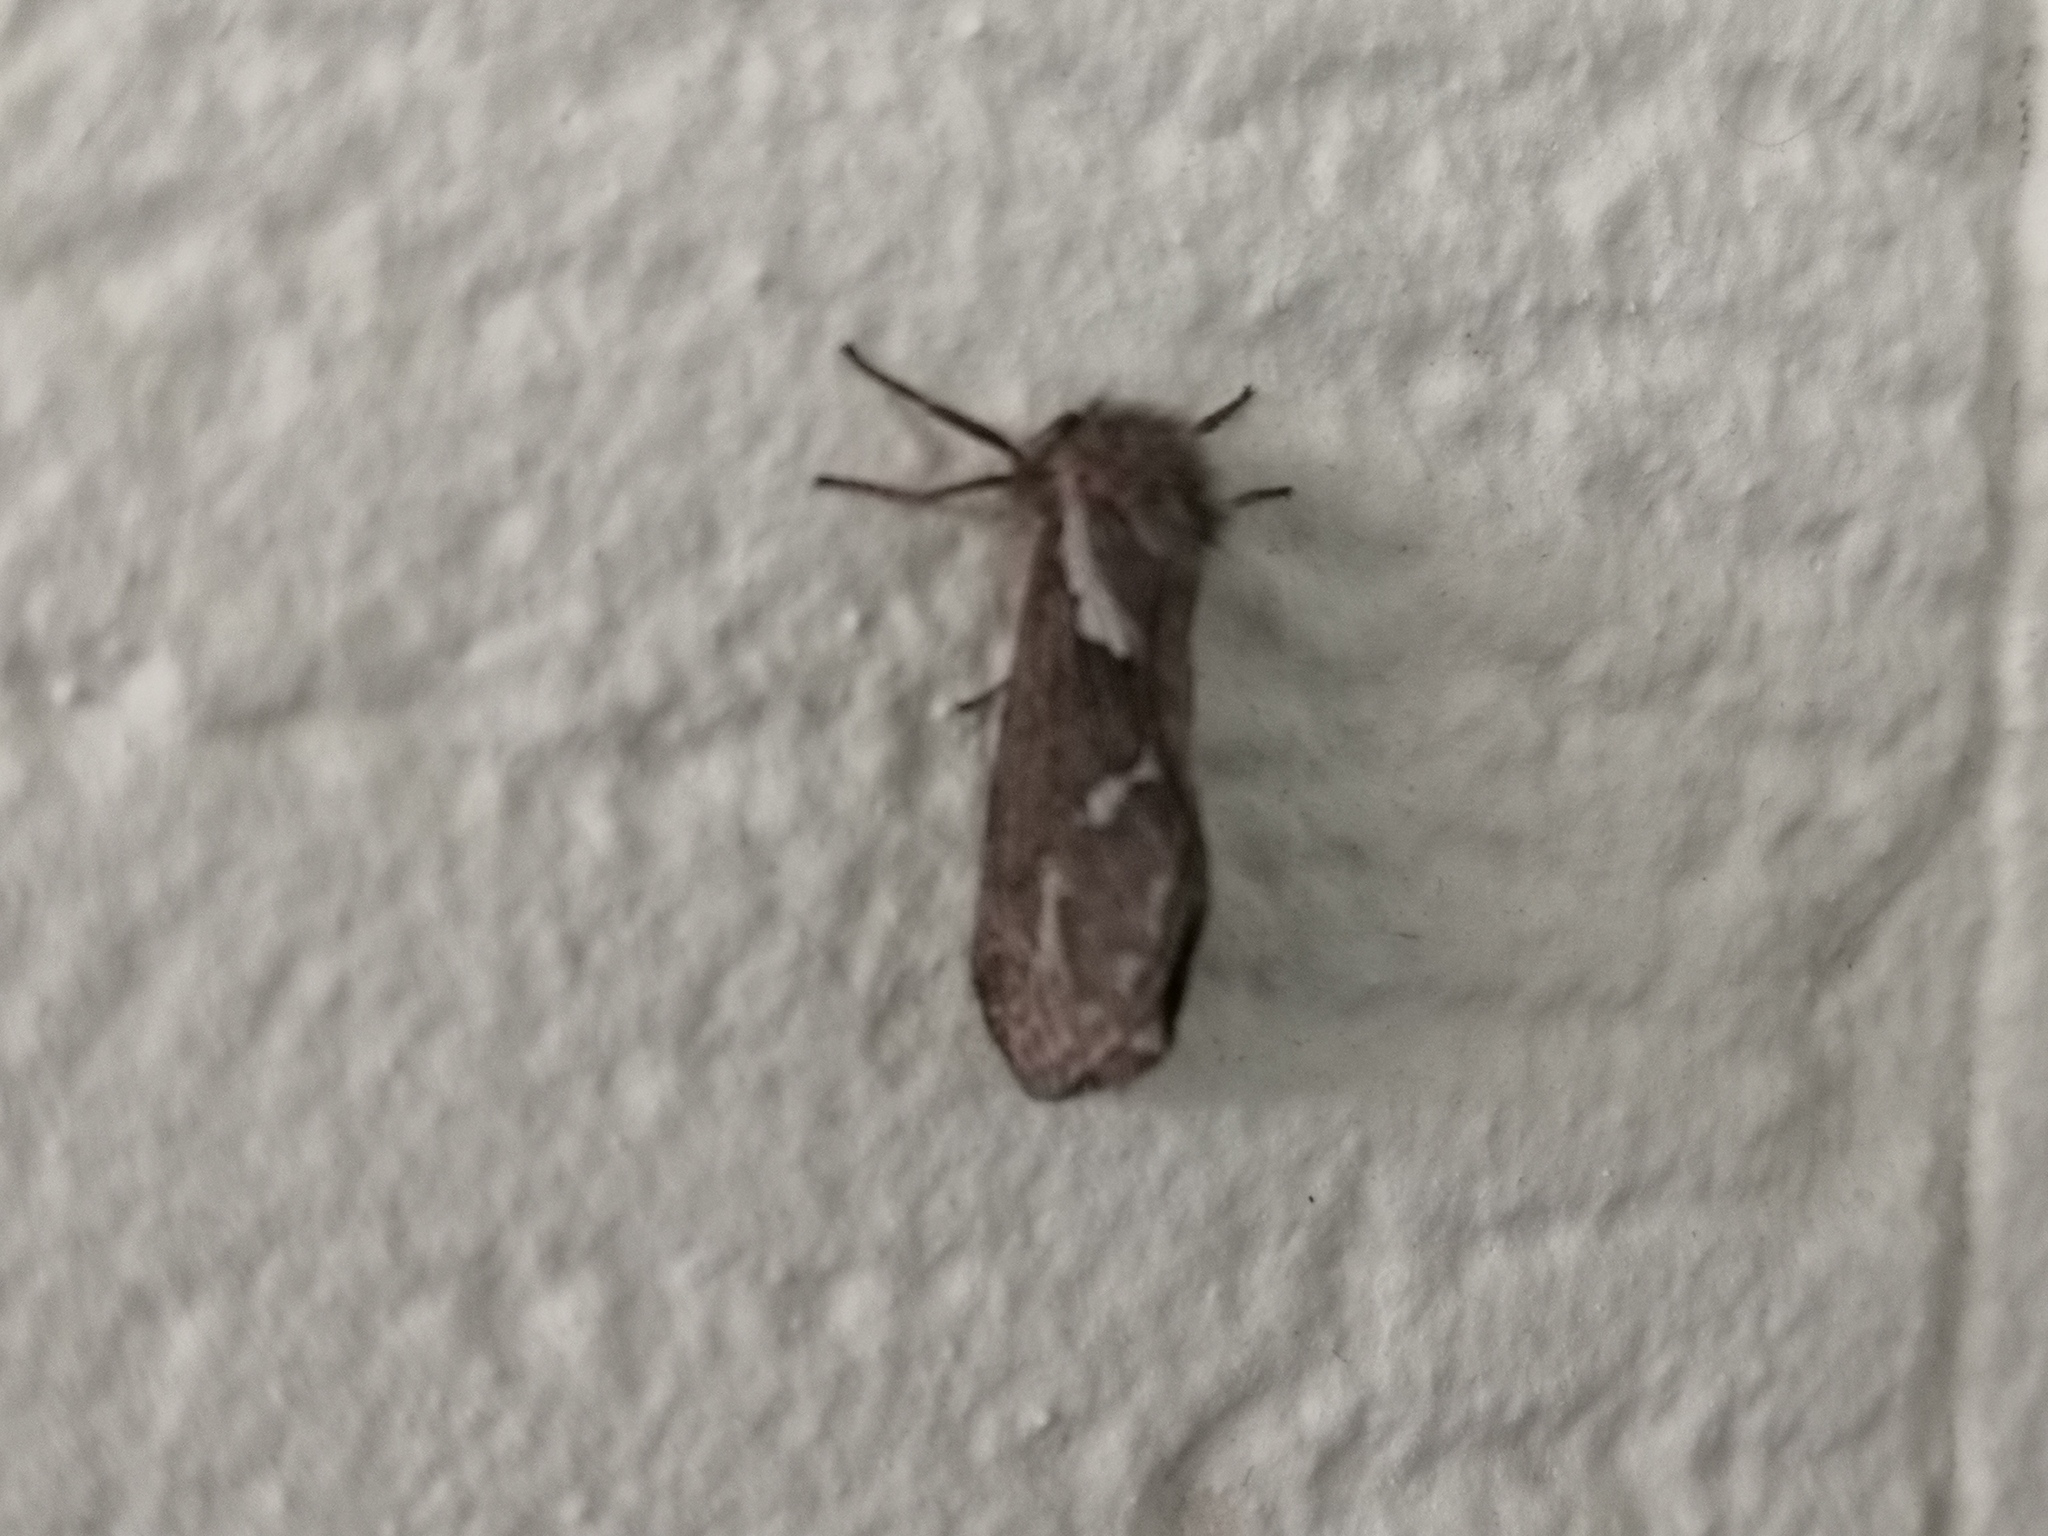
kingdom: Animalia
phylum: Arthropoda
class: Insecta
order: Lepidoptera
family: Hepialidae
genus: Korscheltellus
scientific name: Korscheltellus lupulina
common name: Common swift
